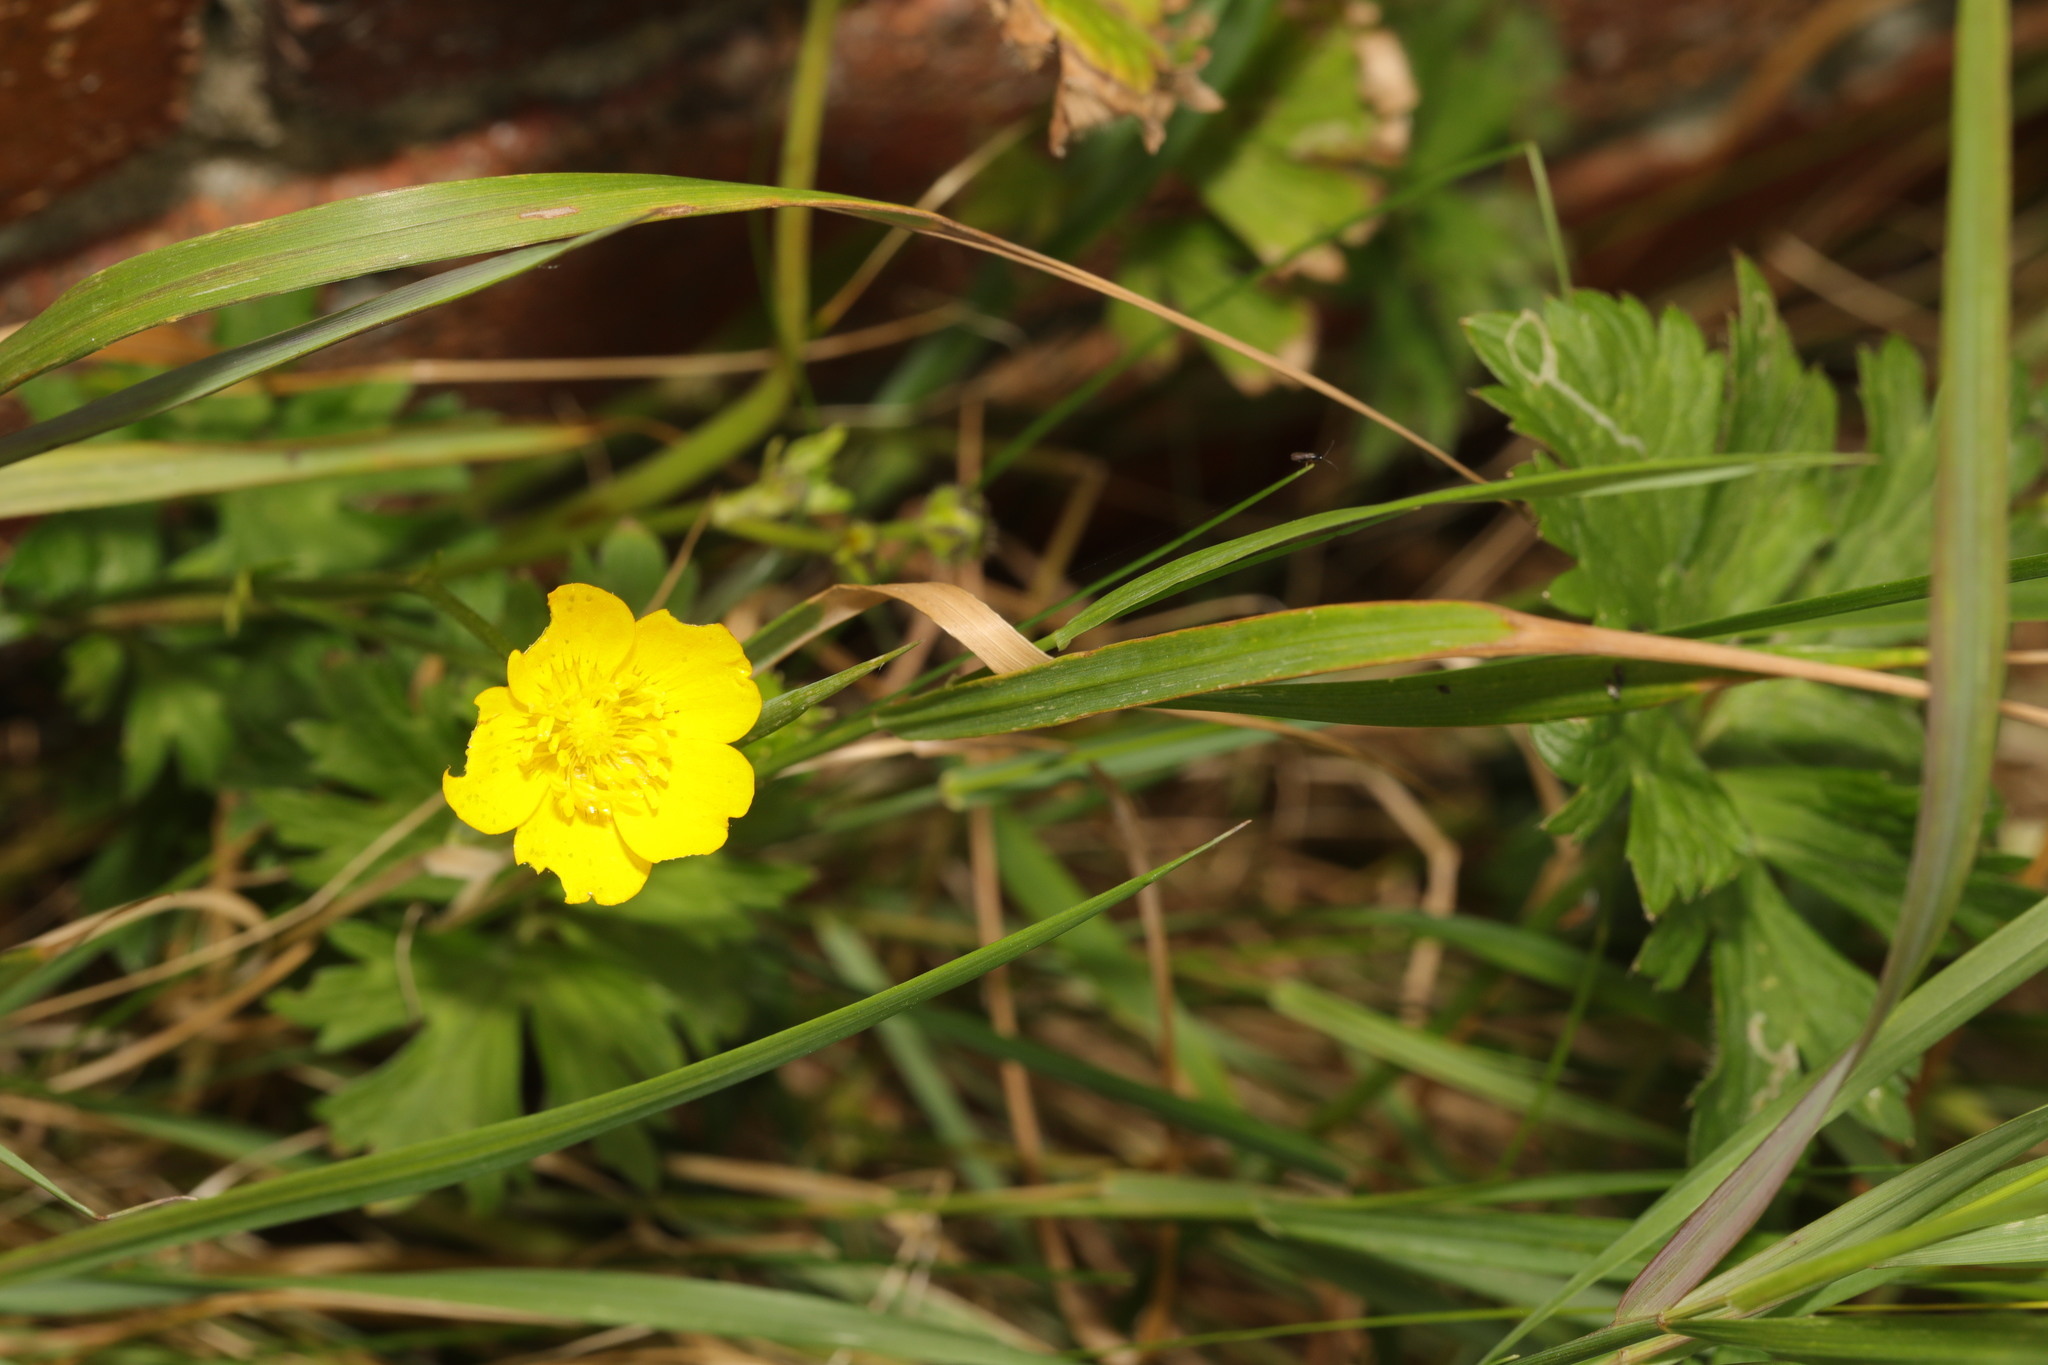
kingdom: Plantae
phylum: Tracheophyta
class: Magnoliopsida
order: Ranunculales
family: Ranunculaceae
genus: Ranunculus
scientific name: Ranunculus repens
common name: Creeping buttercup
